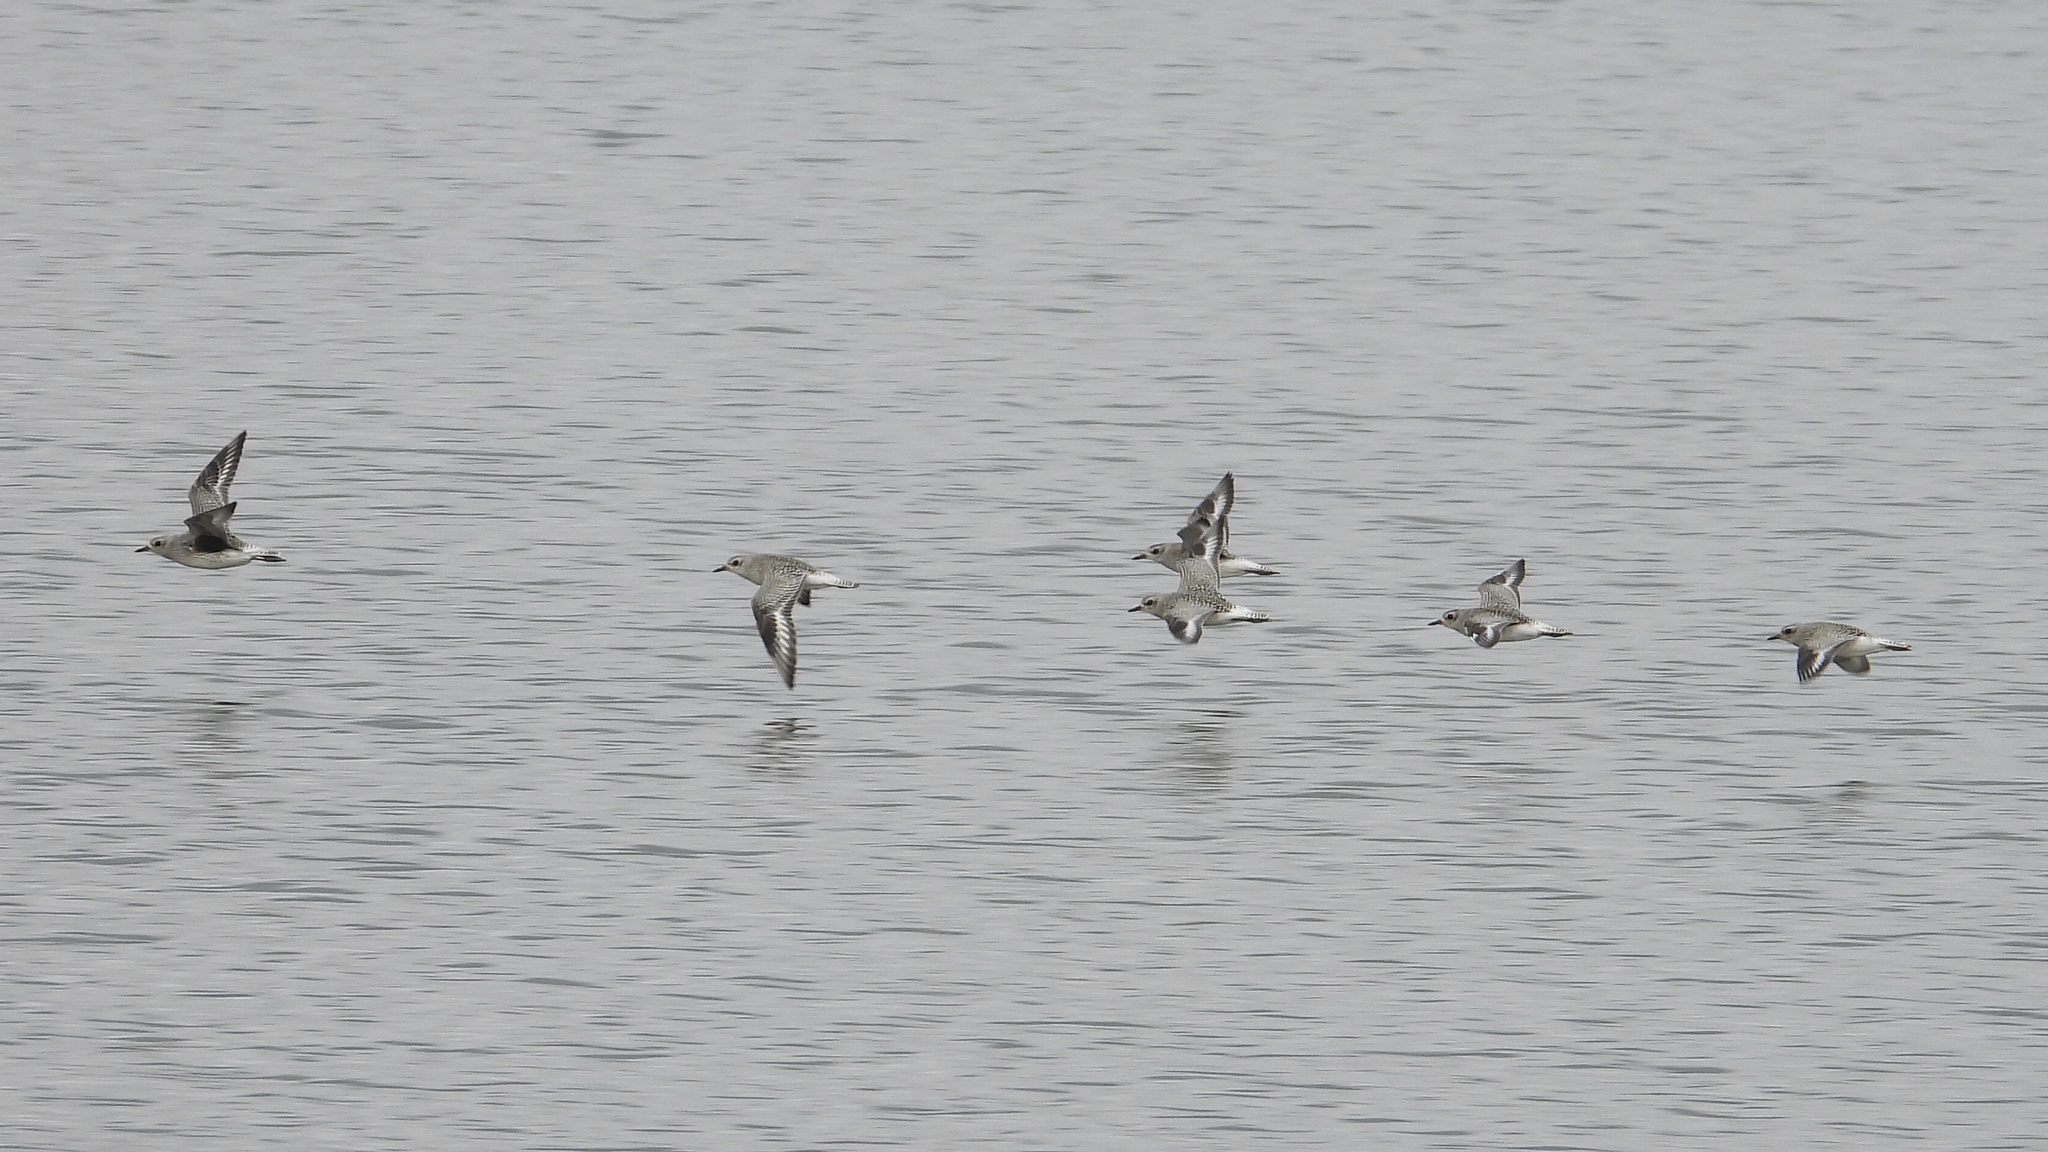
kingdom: Animalia
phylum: Chordata
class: Aves
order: Charadriiformes
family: Charadriidae
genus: Pluvialis
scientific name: Pluvialis squatarola
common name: Grey plover
